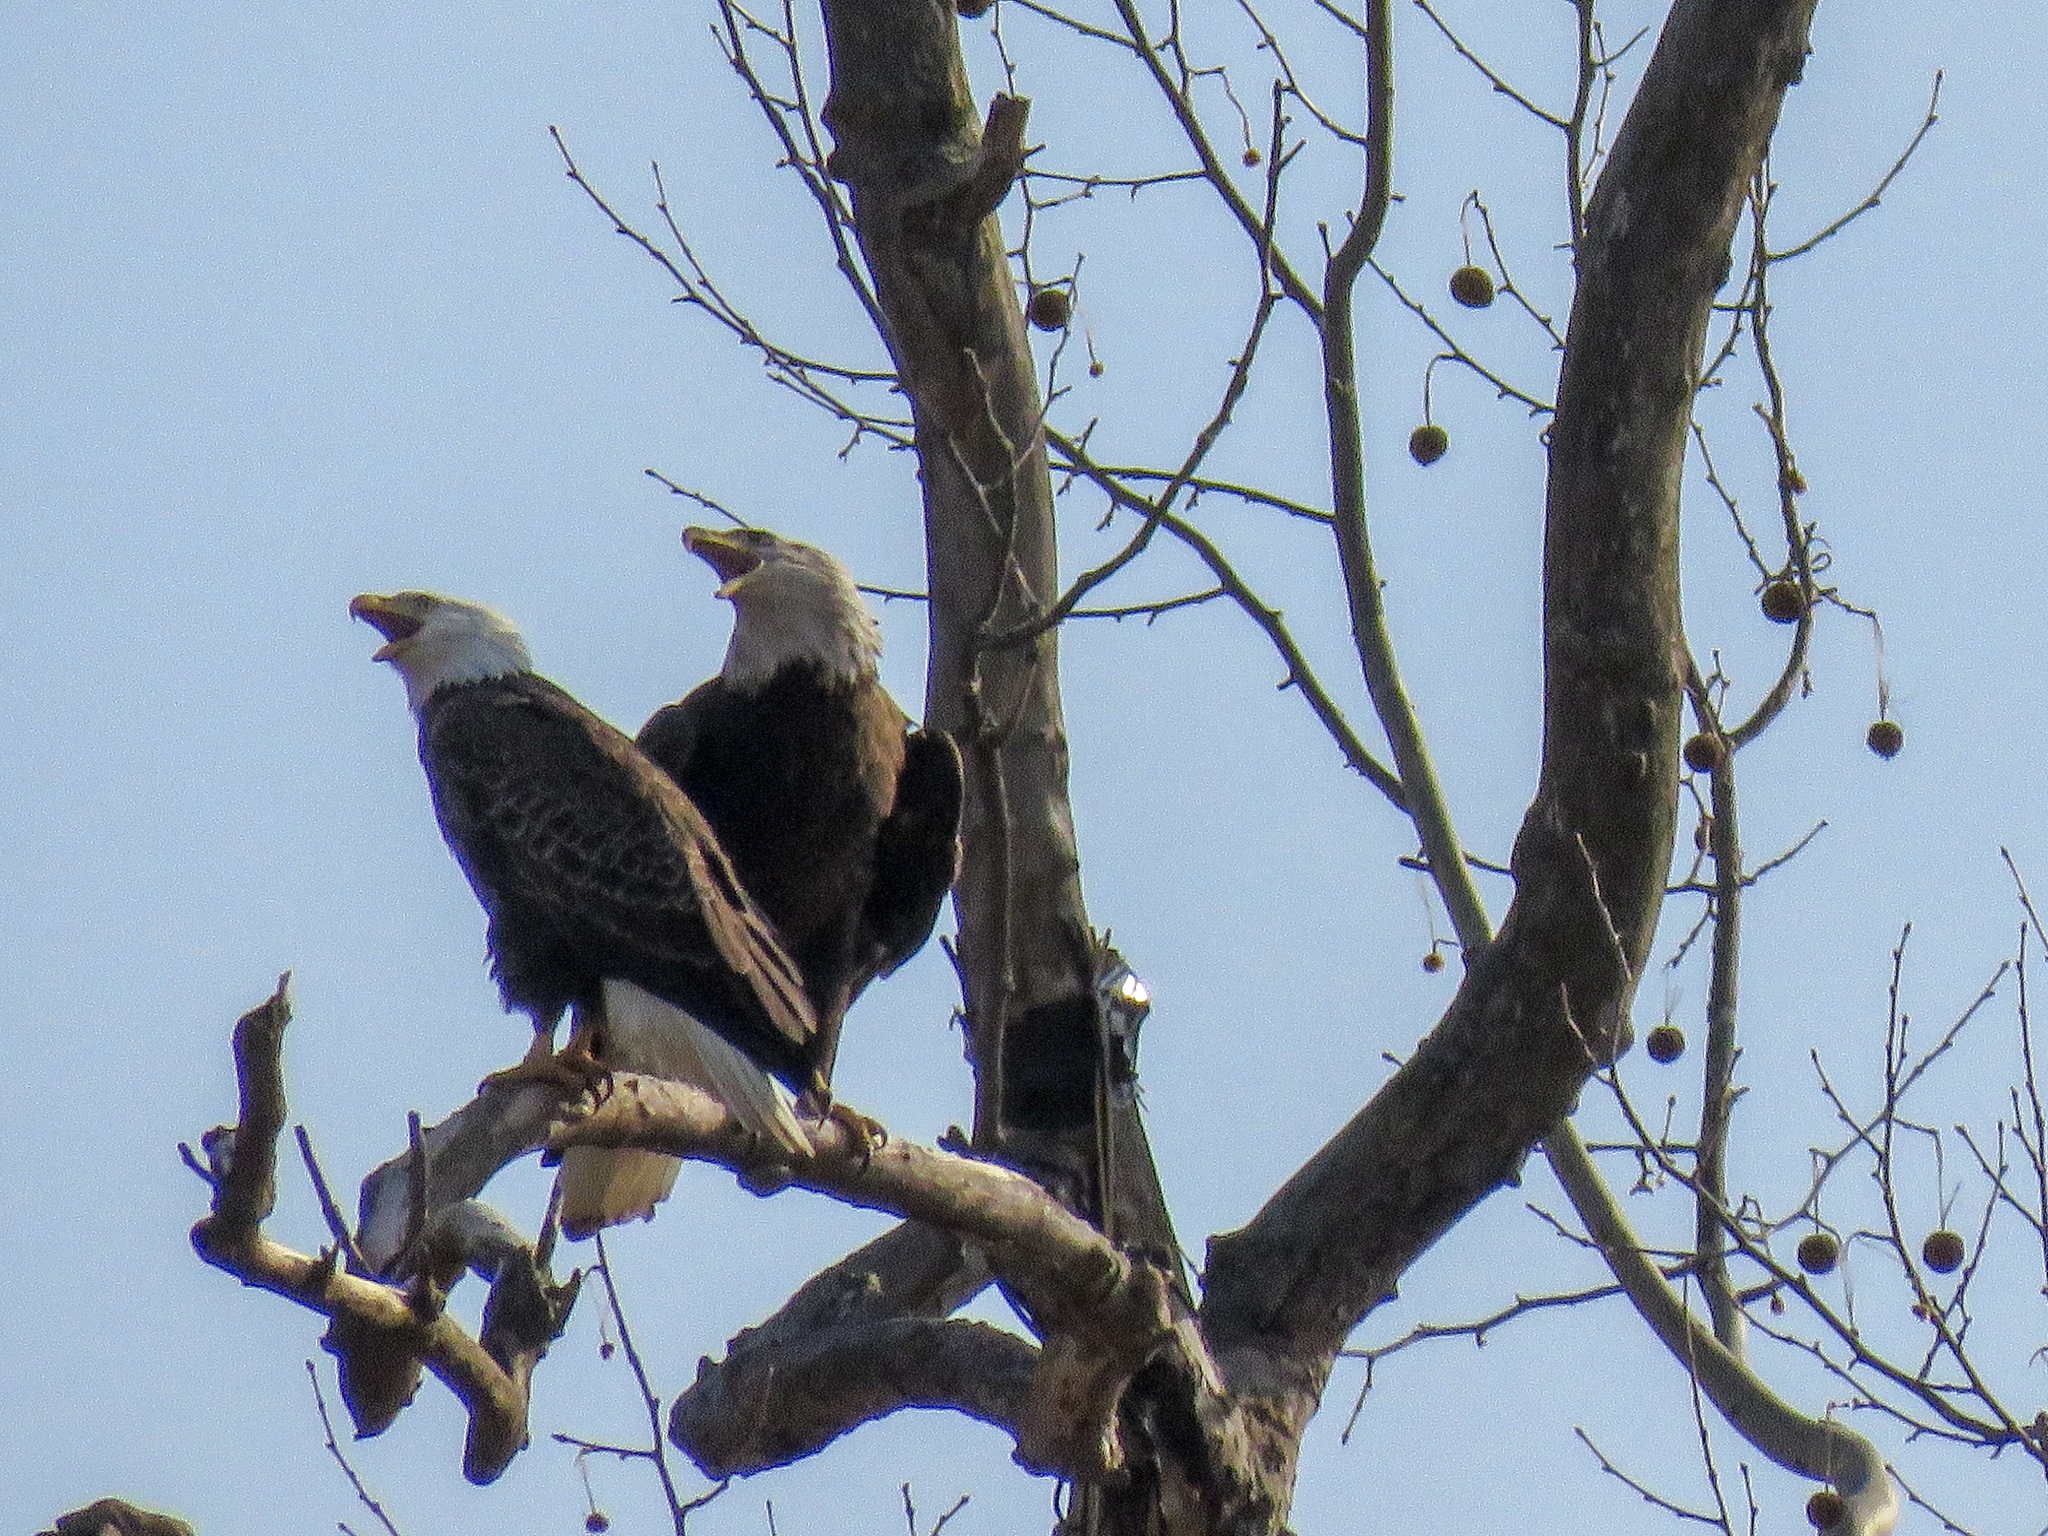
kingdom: Animalia
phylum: Chordata
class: Aves
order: Accipitriformes
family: Accipitridae
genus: Haliaeetus
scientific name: Haliaeetus leucocephalus
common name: Bald eagle
